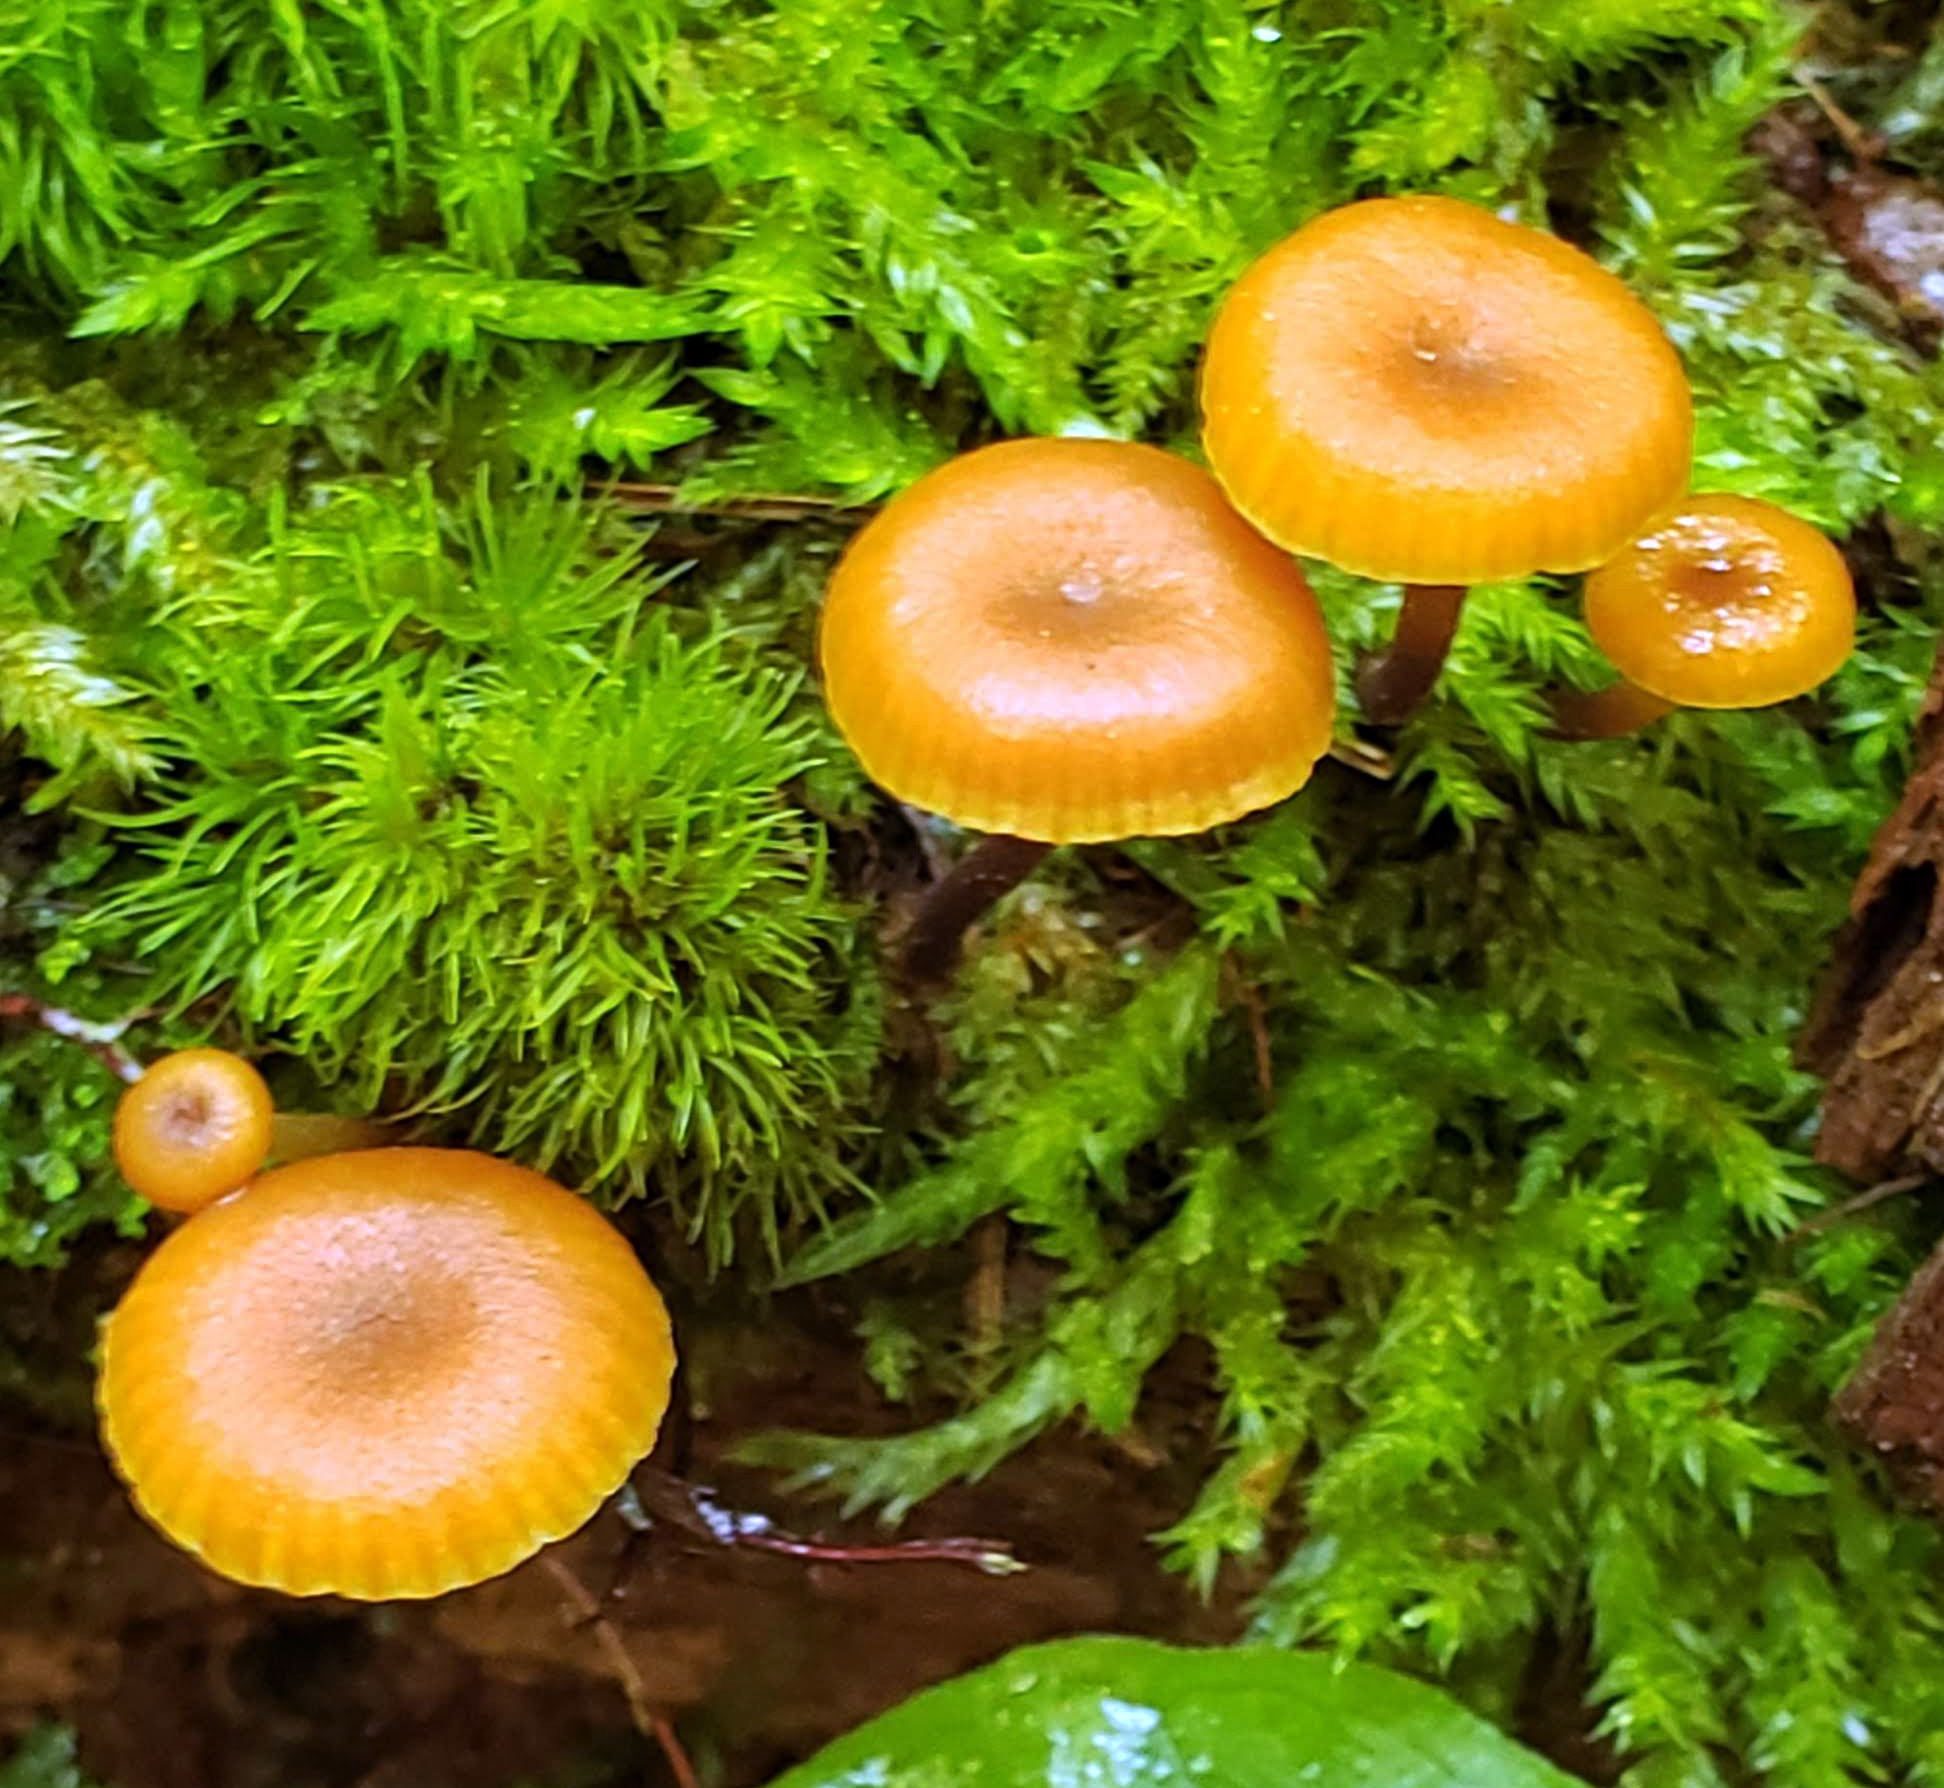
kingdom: Fungi
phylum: Basidiomycota
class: Agaricomycetes
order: Agaricales
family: Mycenaceae
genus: Xeromphalina
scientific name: Xeromphalina campanella
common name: Pinewood gingertail
